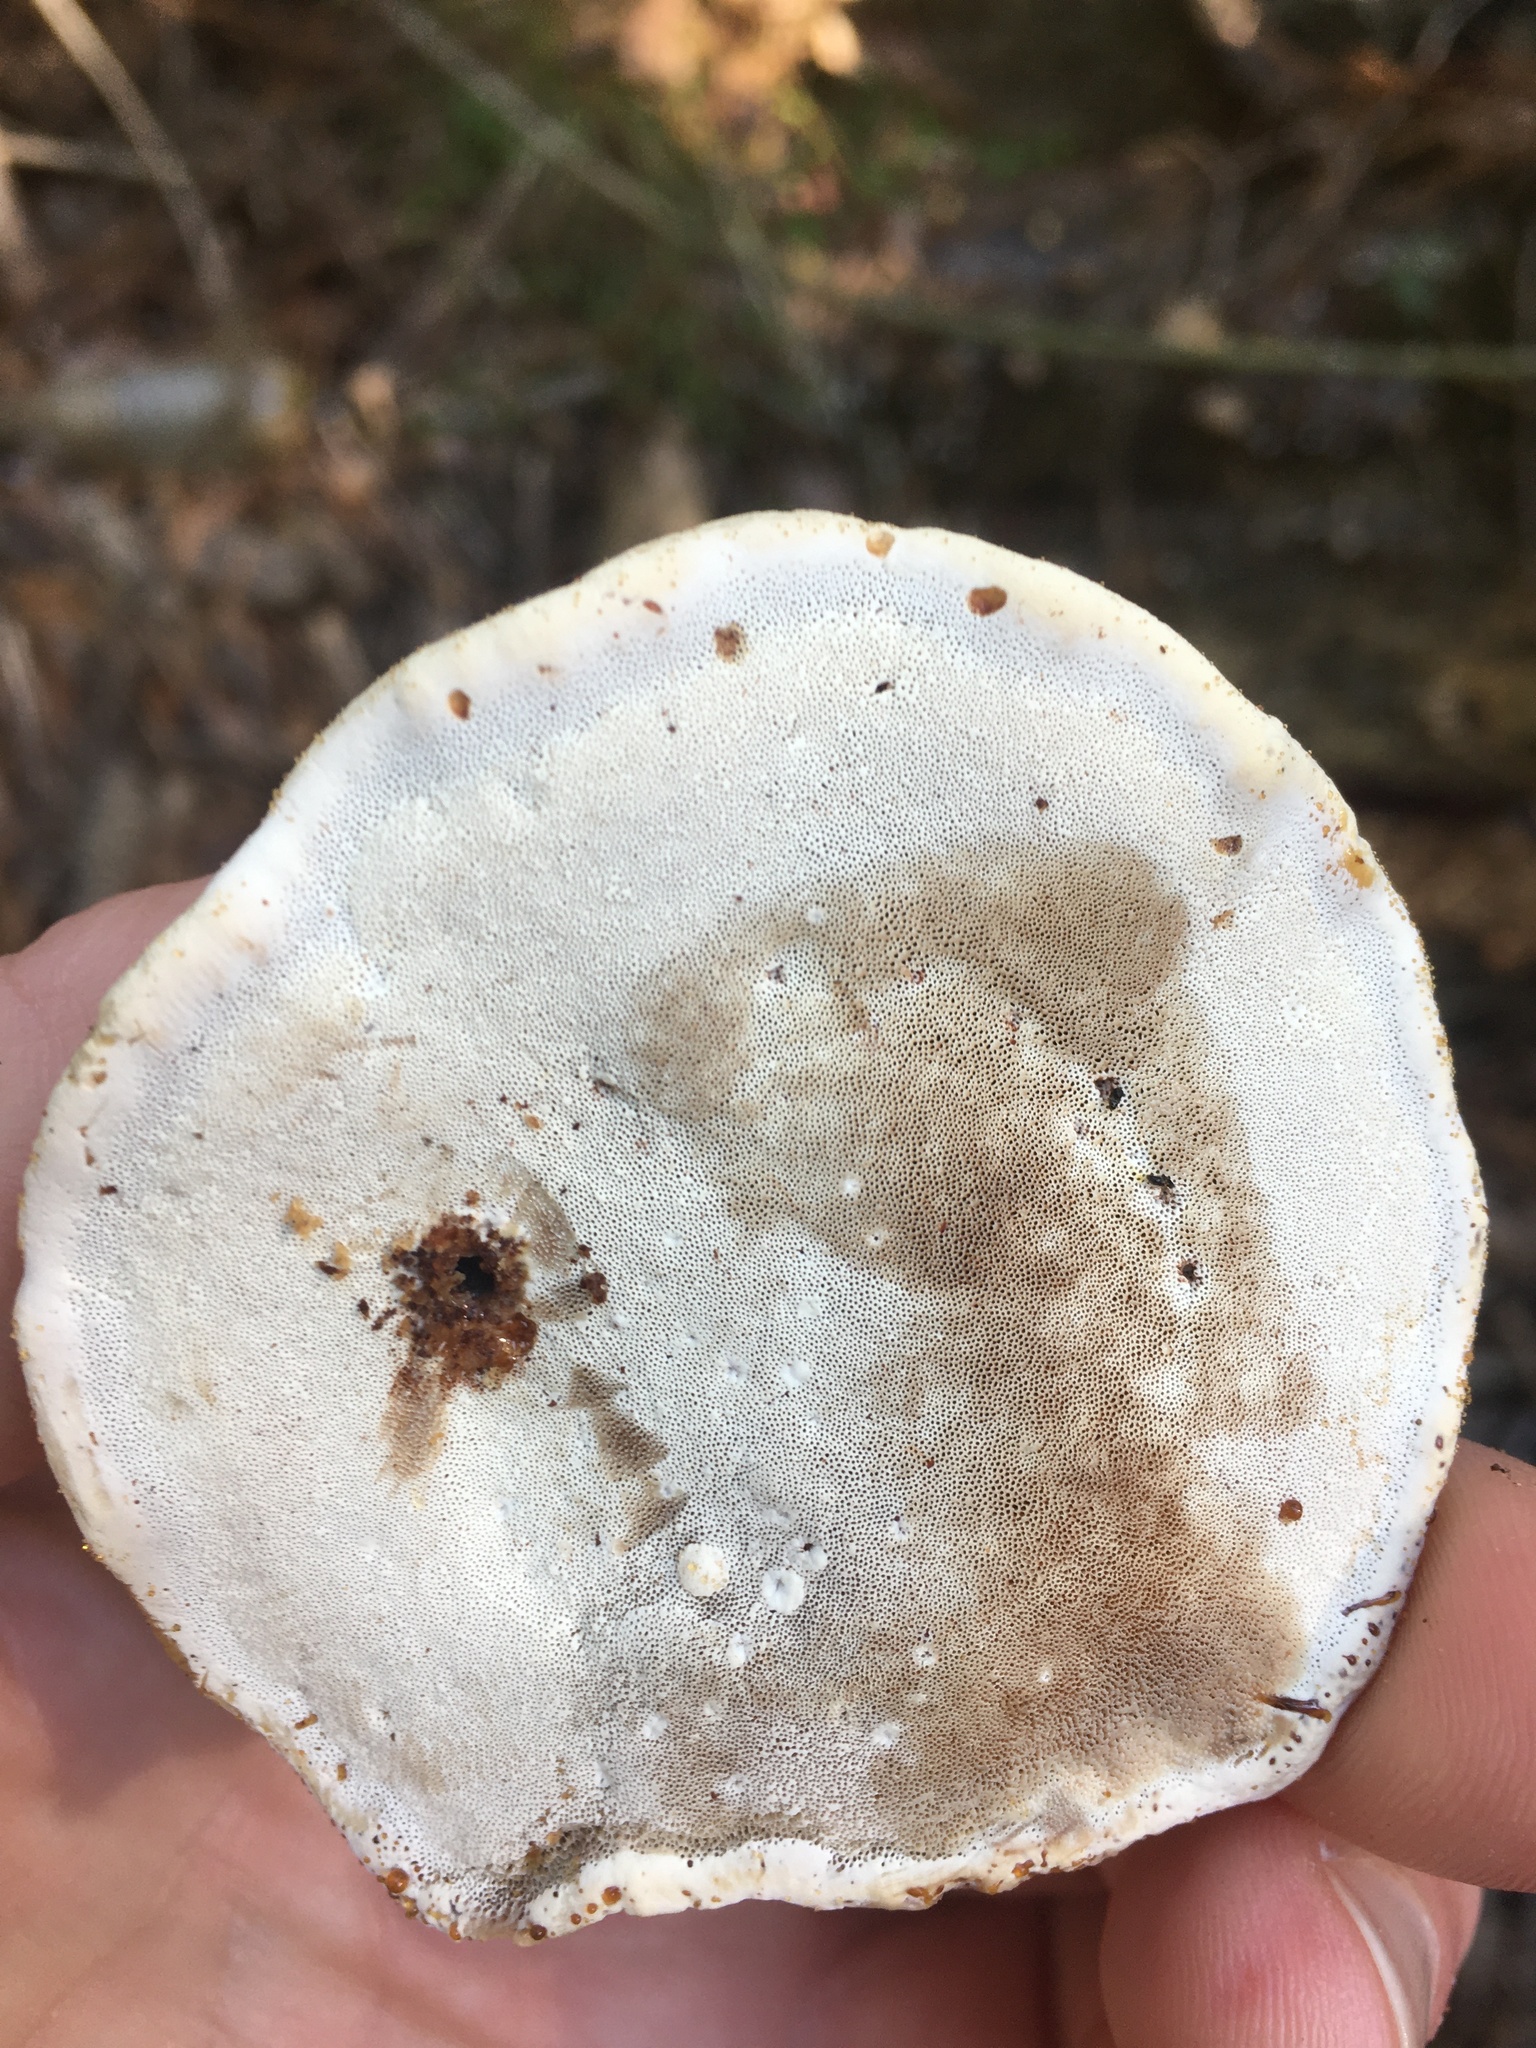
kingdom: Fungi
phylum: Basidiomycota
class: Agaricomycetes
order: Polyporales
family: Polyporaceae
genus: Ganoderma
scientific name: Ganoderma resinaceum
